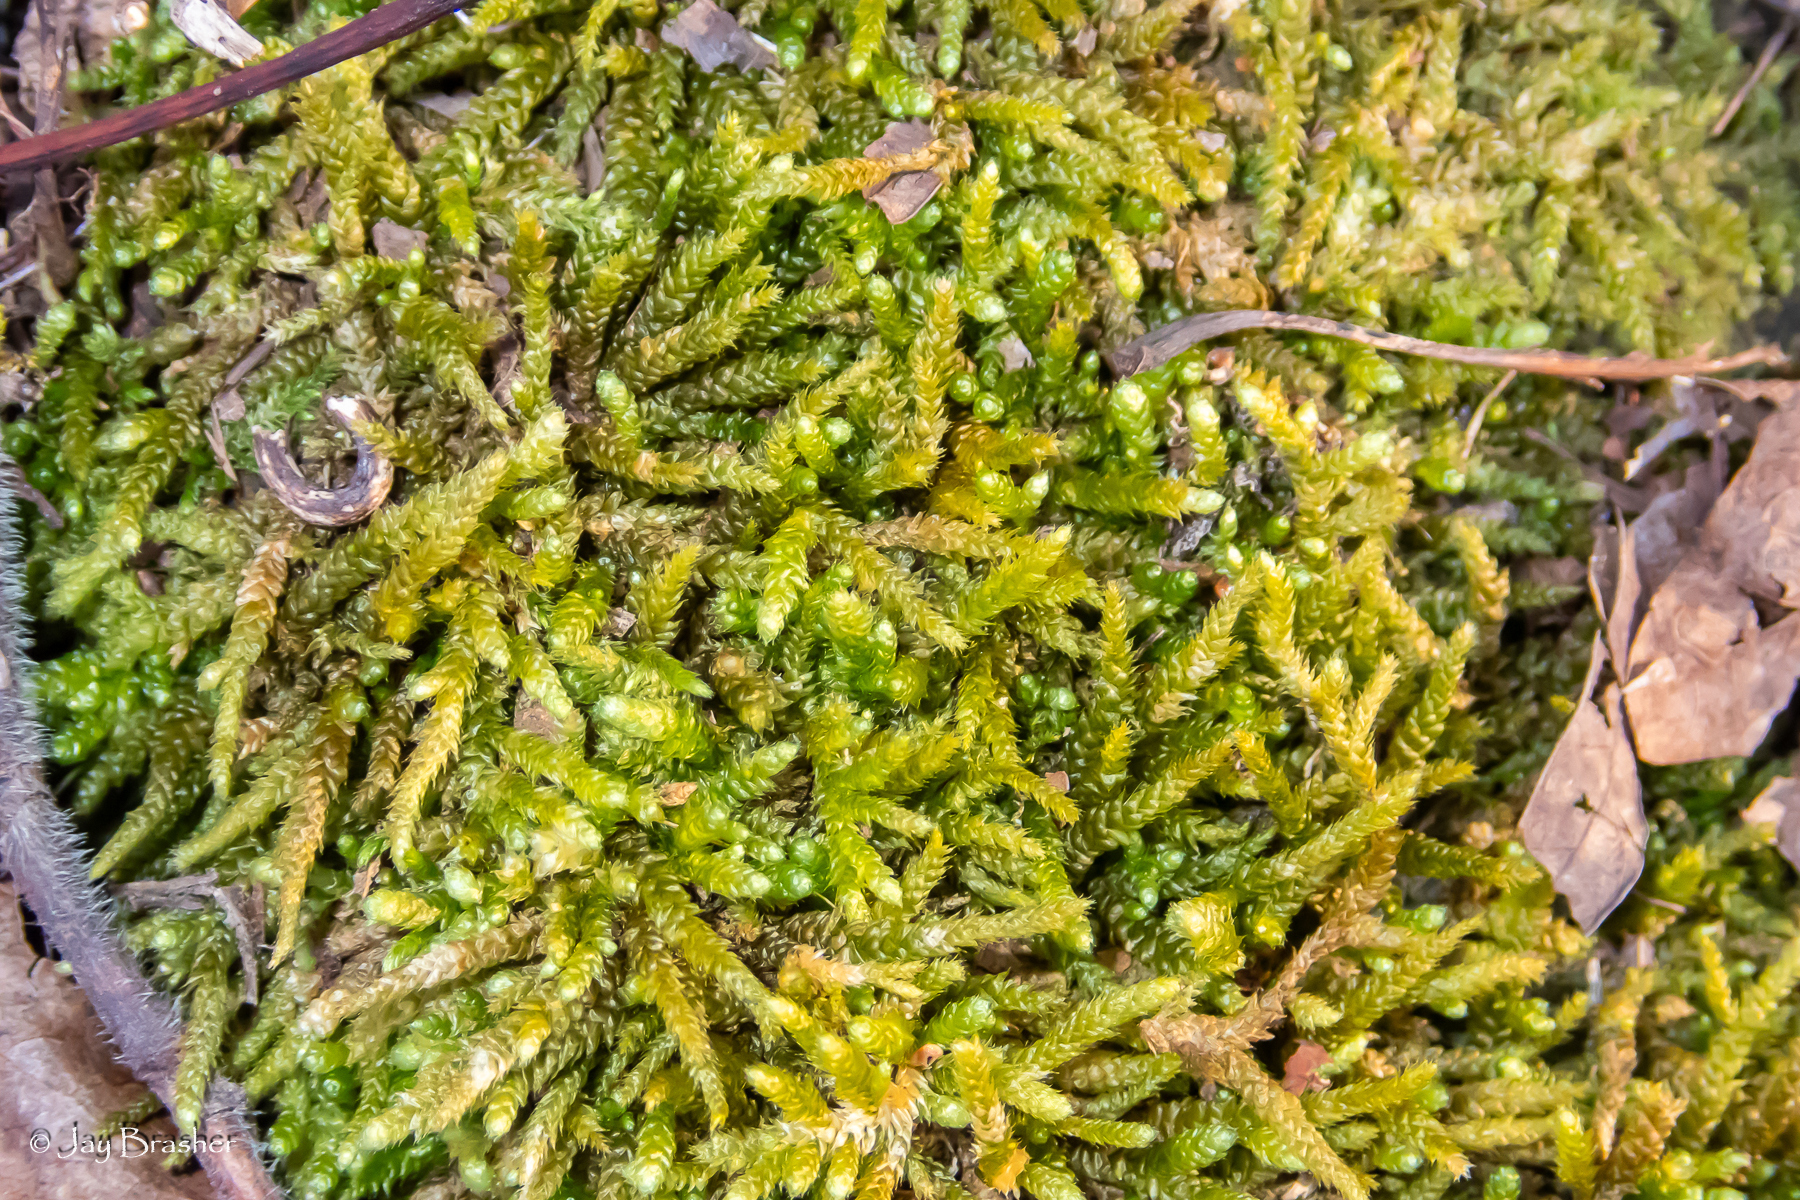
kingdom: Plantae
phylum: Bryophyta
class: Bryopsida
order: Hypnales
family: Brachytheciaceae
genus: Bryoandersonia
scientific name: Bryoandersonia illecebra
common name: Spoon-leaved moss
